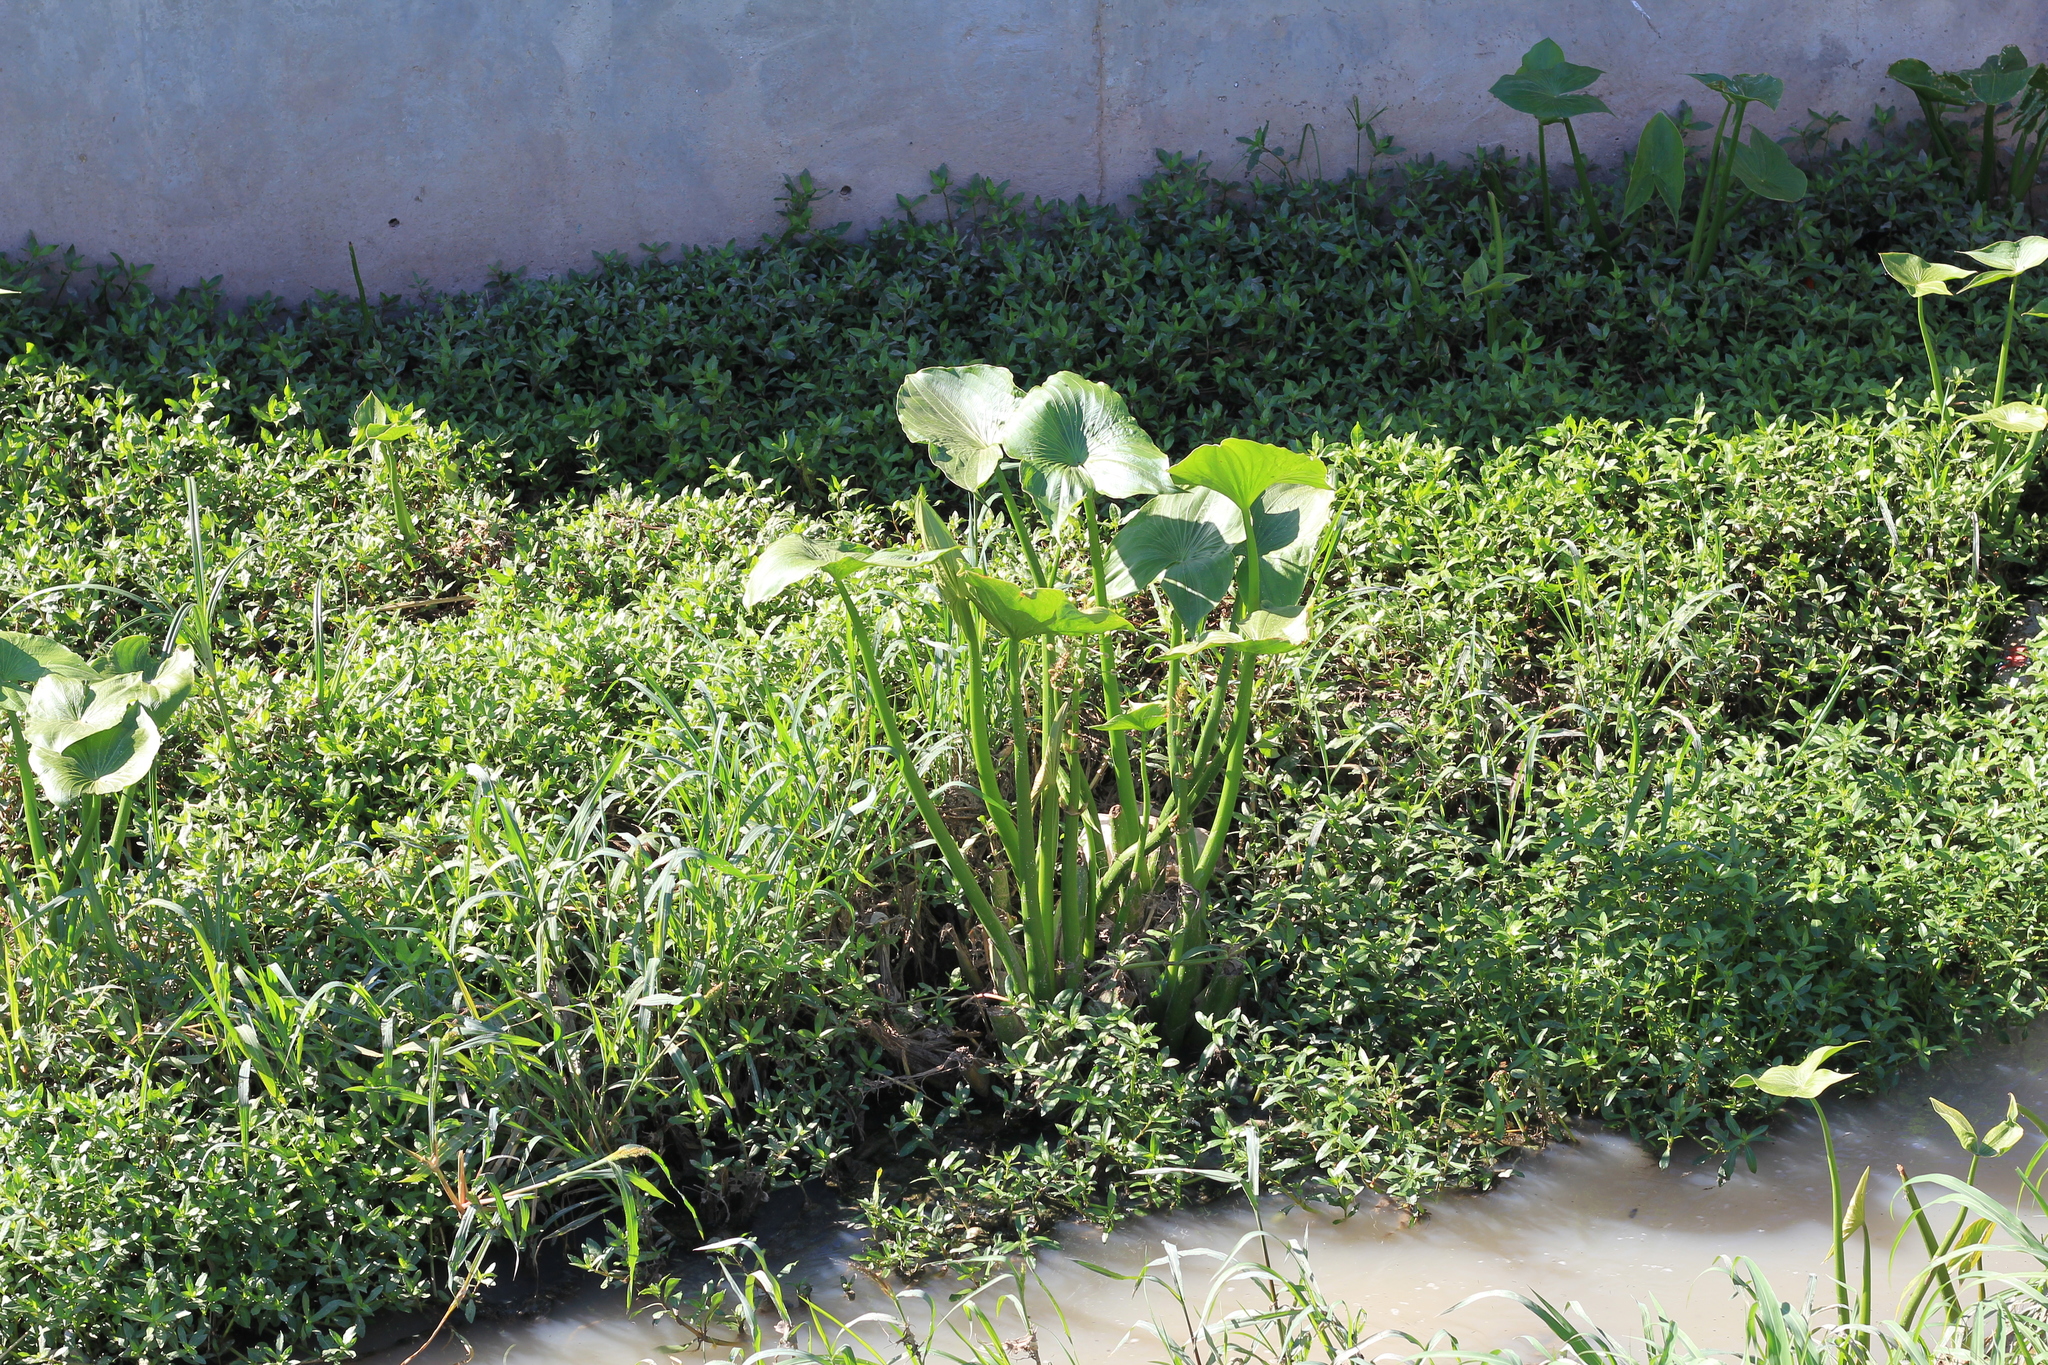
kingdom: Plantae
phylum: Tracheophyta
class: Liliopsida
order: Alismatales
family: Alismataceae
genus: Sagittaria
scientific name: Sagittaria montevidensis
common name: Giant arrowhead
